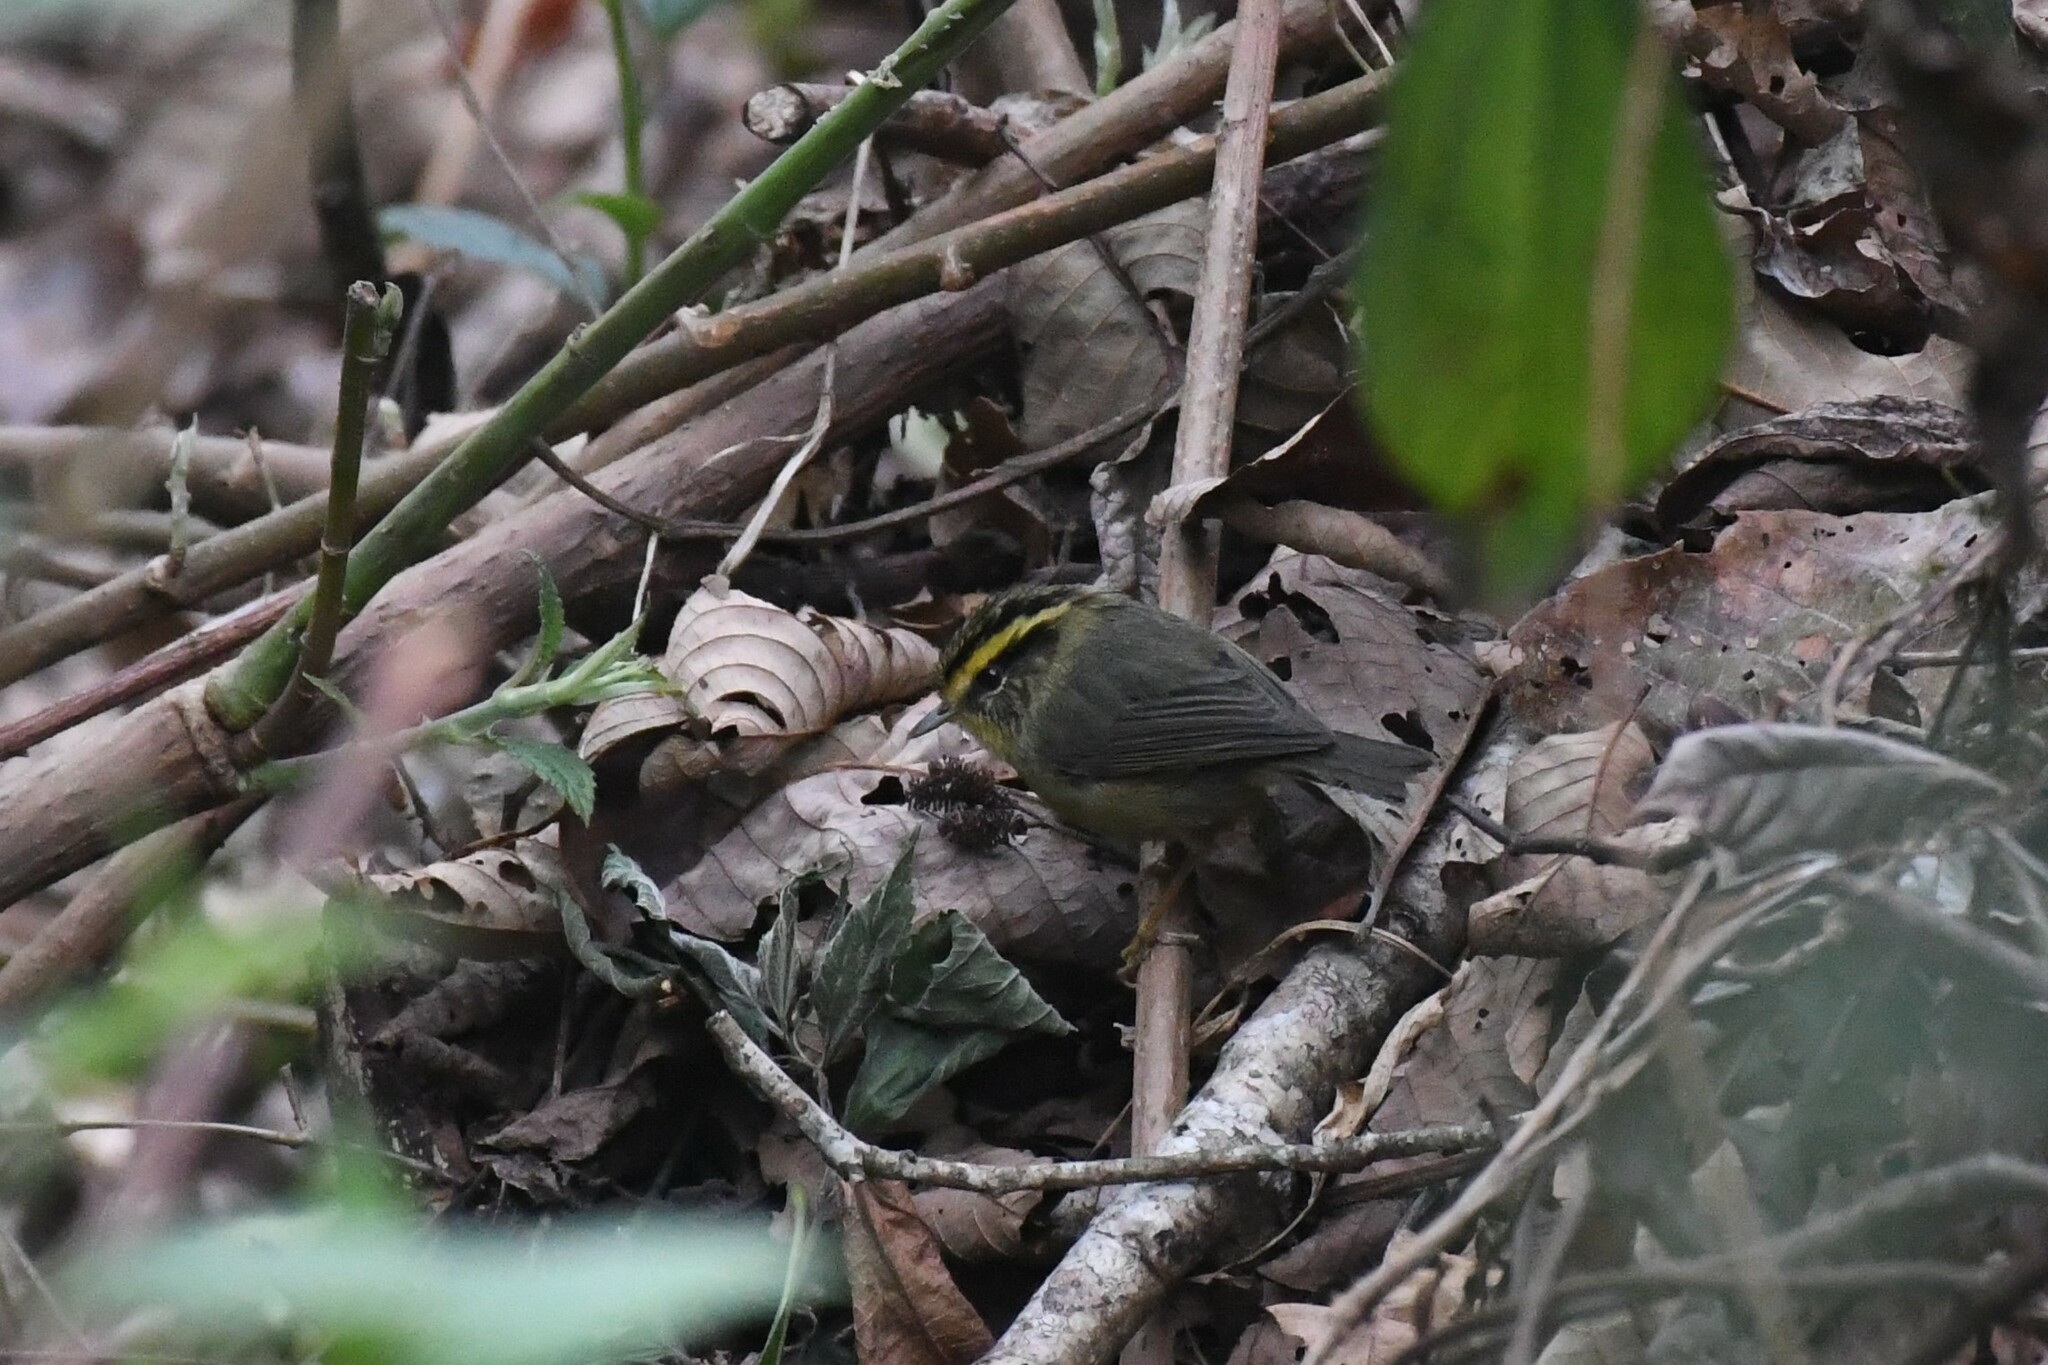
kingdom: Animalia
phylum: Chordata
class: Aves
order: Passeriformes
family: Pellorneidae
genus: Alcippe
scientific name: Alcippe cinerea
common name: Yellow-throated fulvetta
